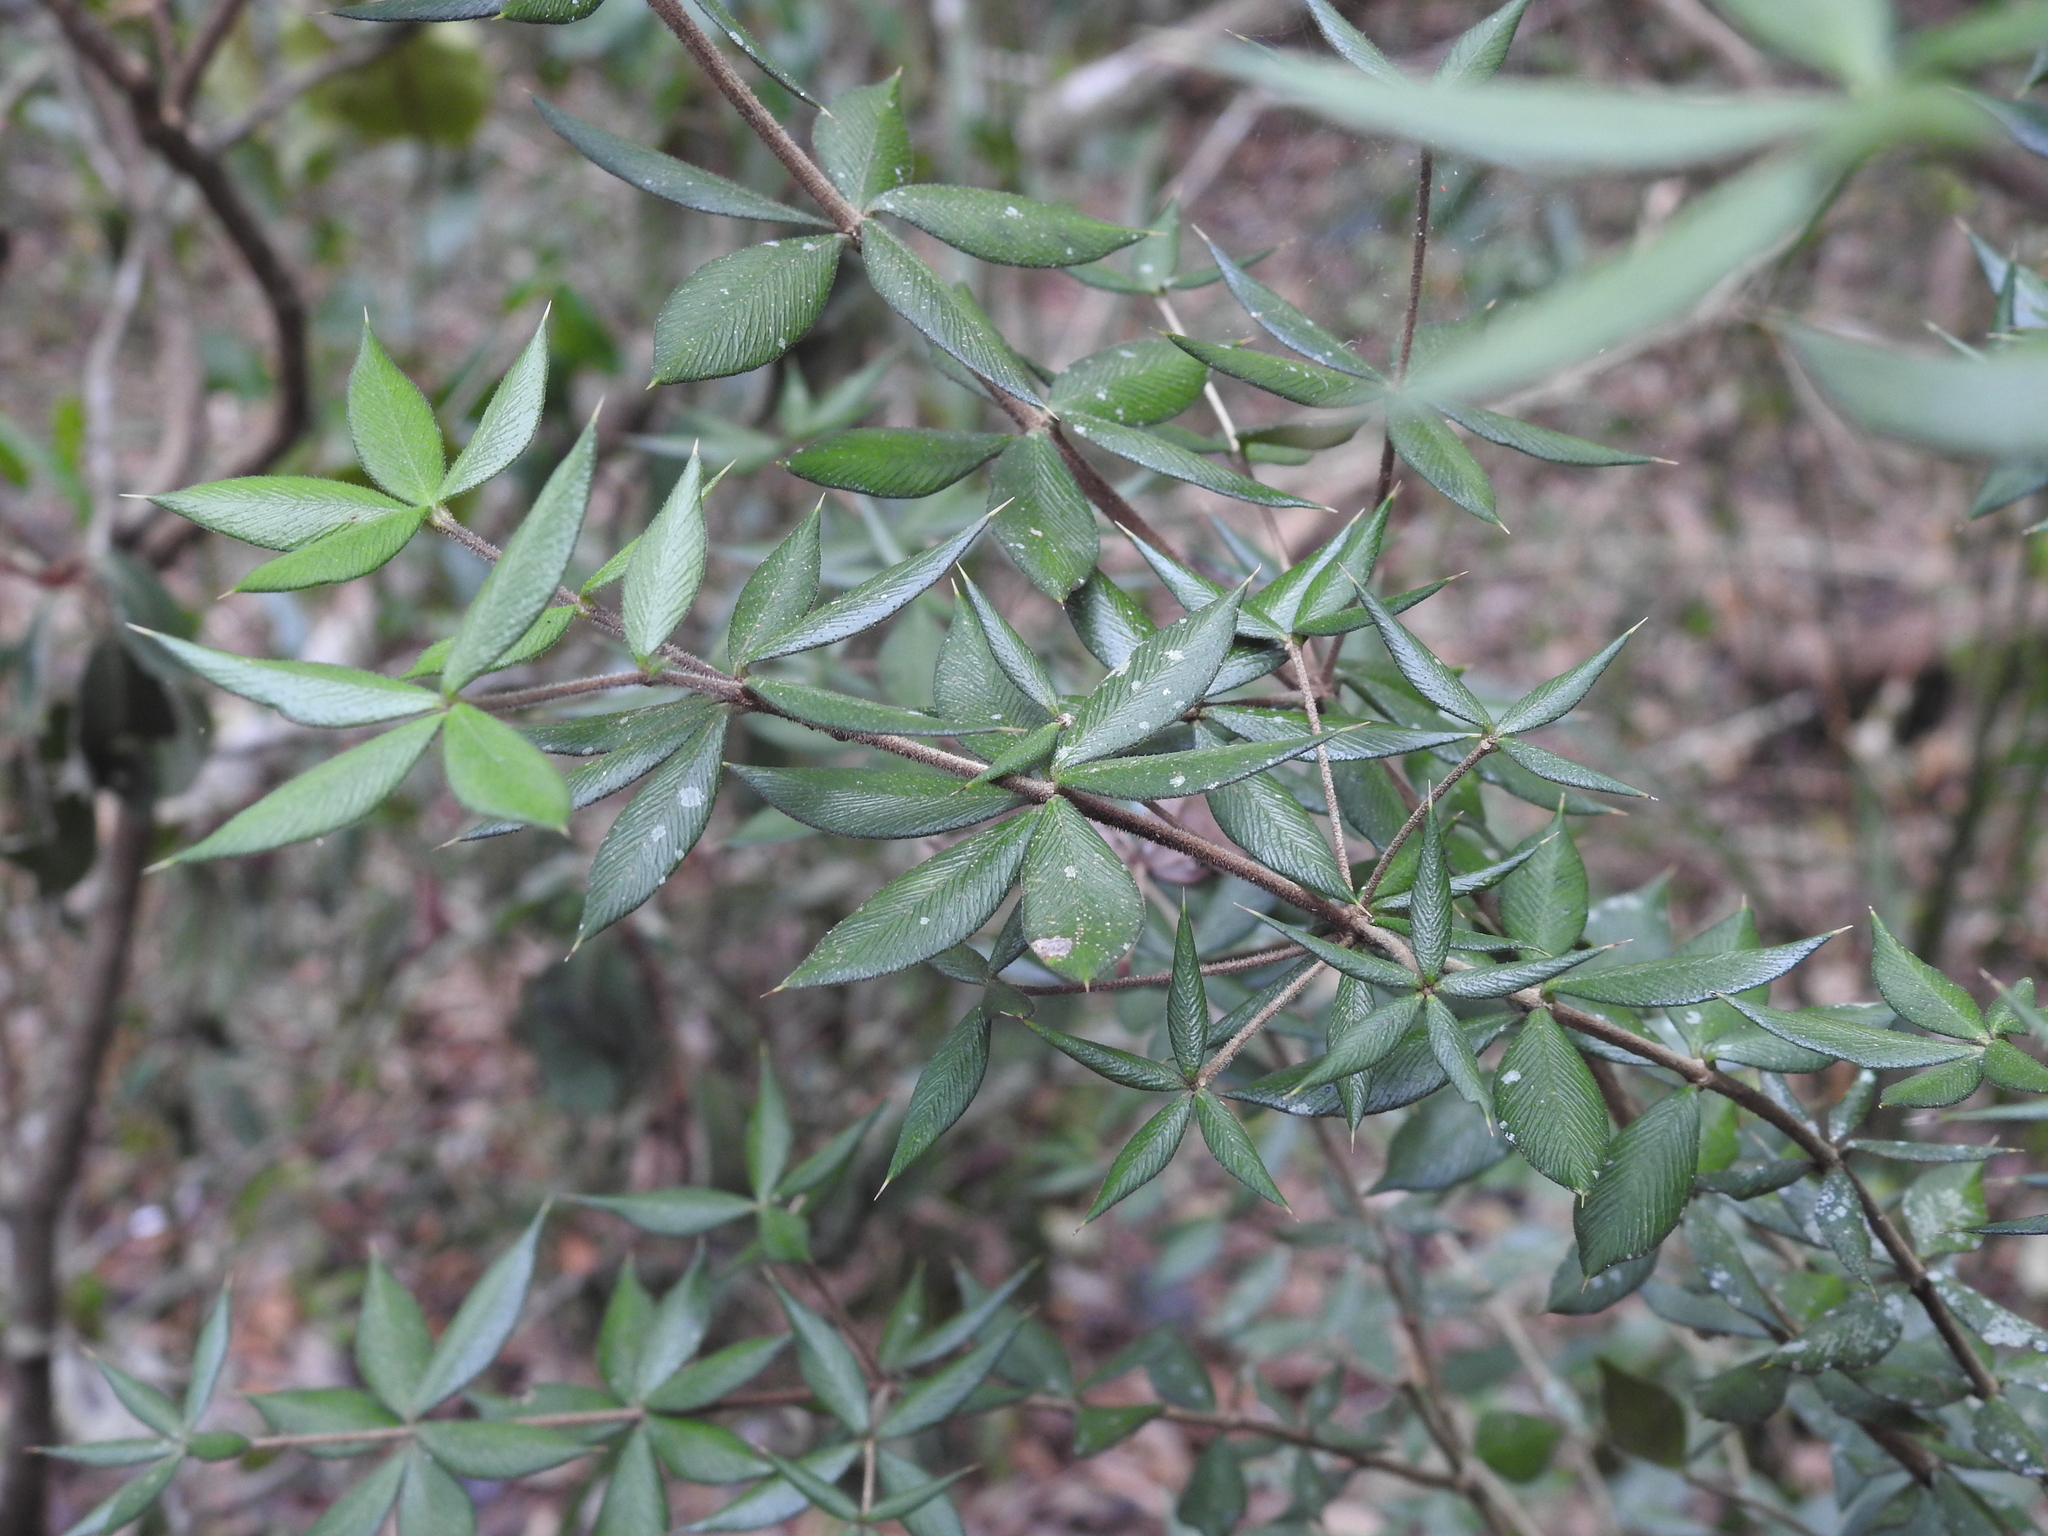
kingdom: Plantae
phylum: Tracheophyta
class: Magnoliopsida
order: Gentianales
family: Apocynaceae
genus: Alyxia
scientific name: Alyxia ruscifolia
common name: Chainfruit
